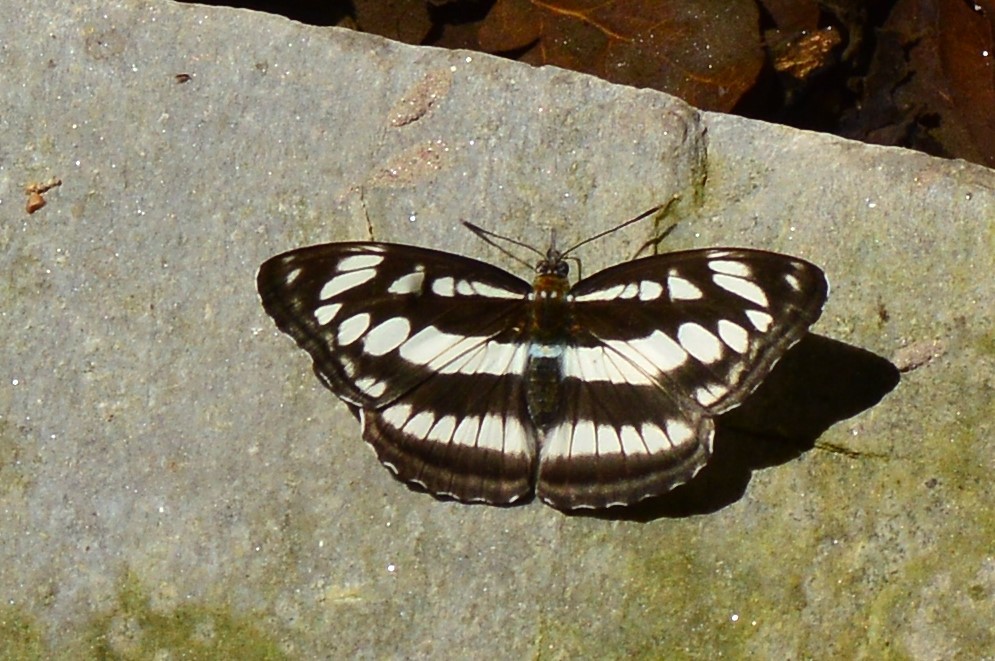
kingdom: Animalia
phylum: Arthropoda
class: Insecta
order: Lepidoptera
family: Nymphalidae
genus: Parathyma
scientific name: Parathyma opalina
